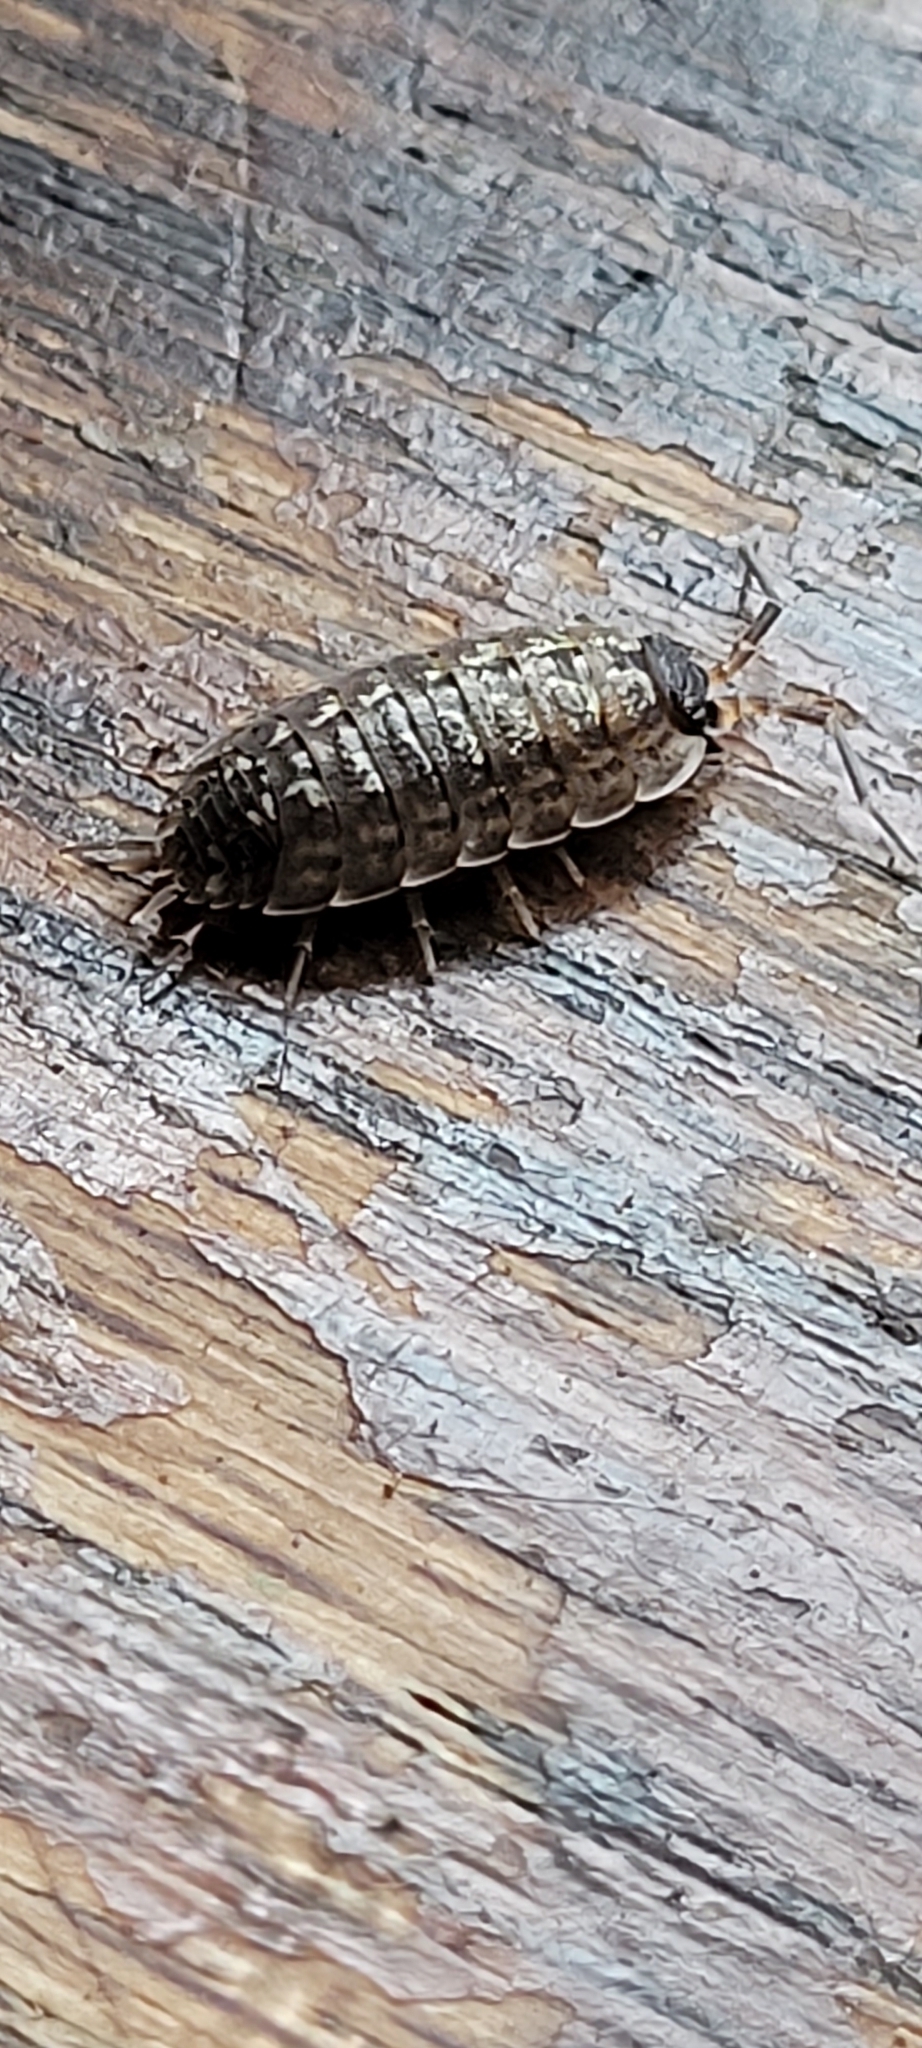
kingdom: Animalia
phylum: Arthropoda
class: Malacostraca
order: Isopoda
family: Porcellionidae
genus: Porcellio
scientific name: Porcellio spinicornis
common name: Painted woodlouse
